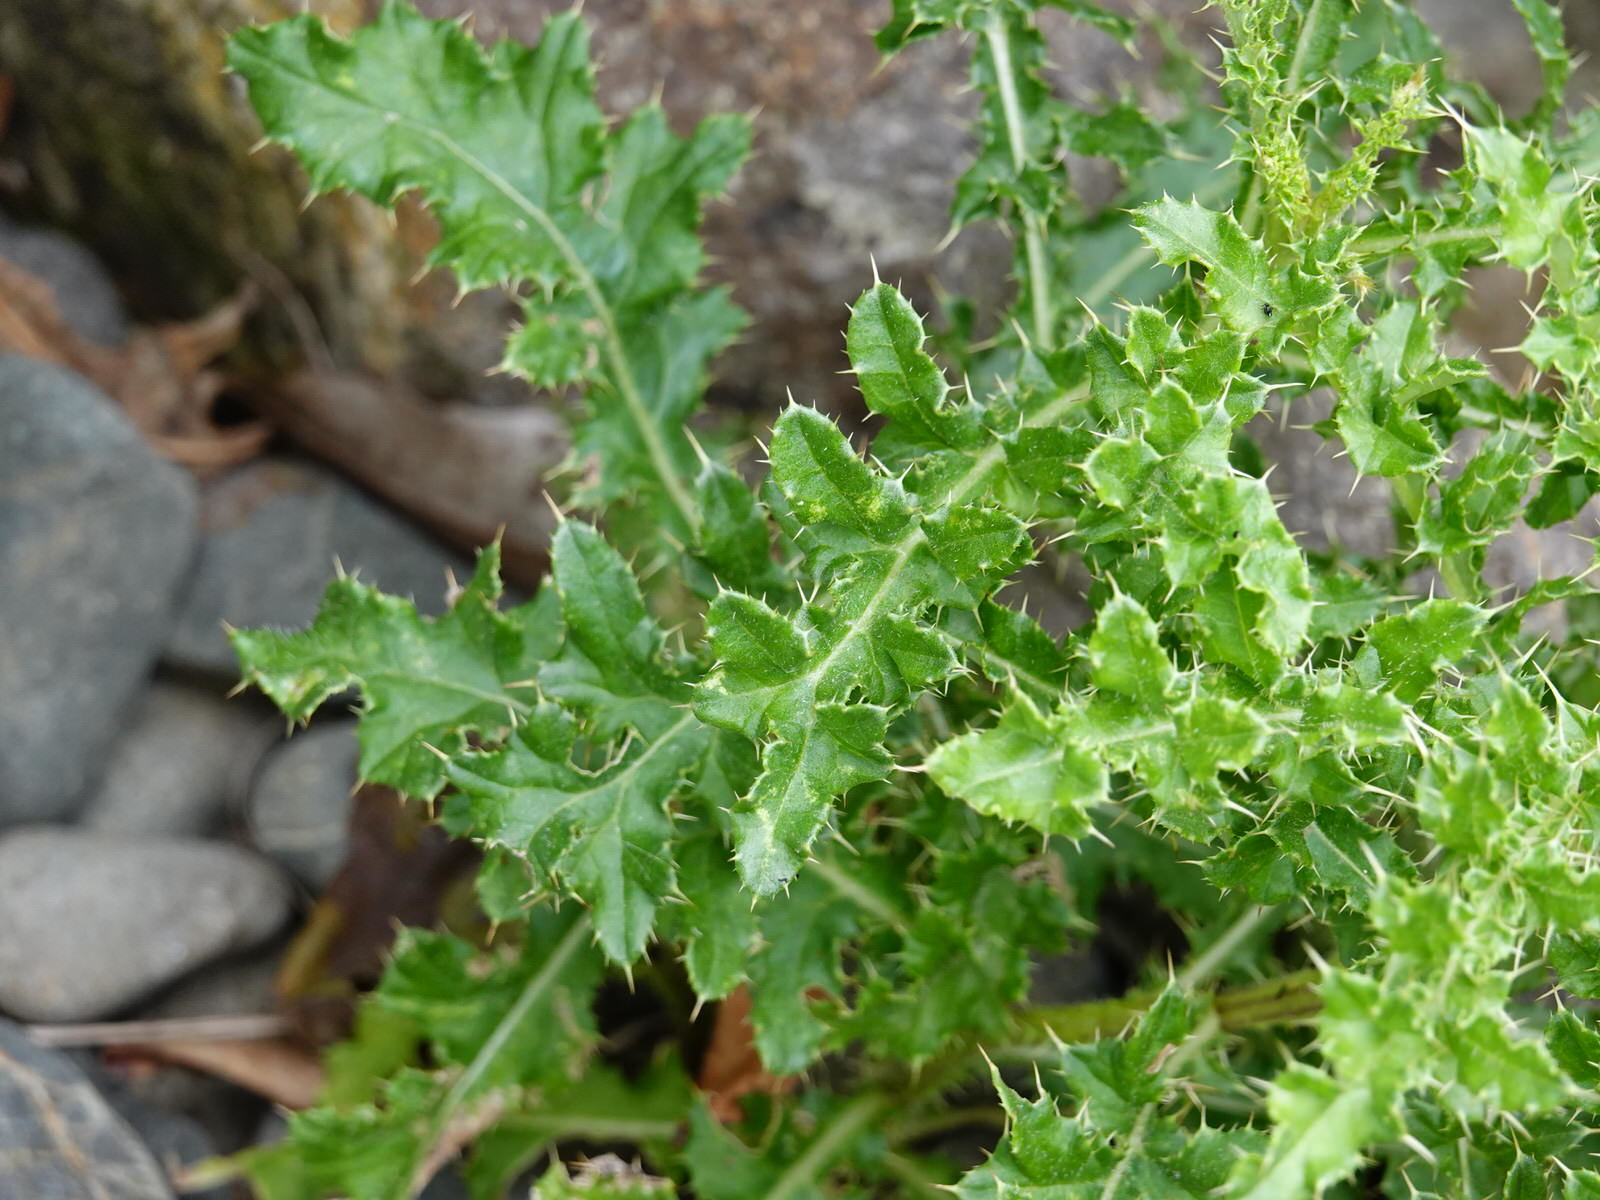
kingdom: Plantae
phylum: Tracheophyta
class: Magnoliopsida
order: Asterales
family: Asteraceae
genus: Cirsium
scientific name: Cirsium arvense
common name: Creeping thistle
